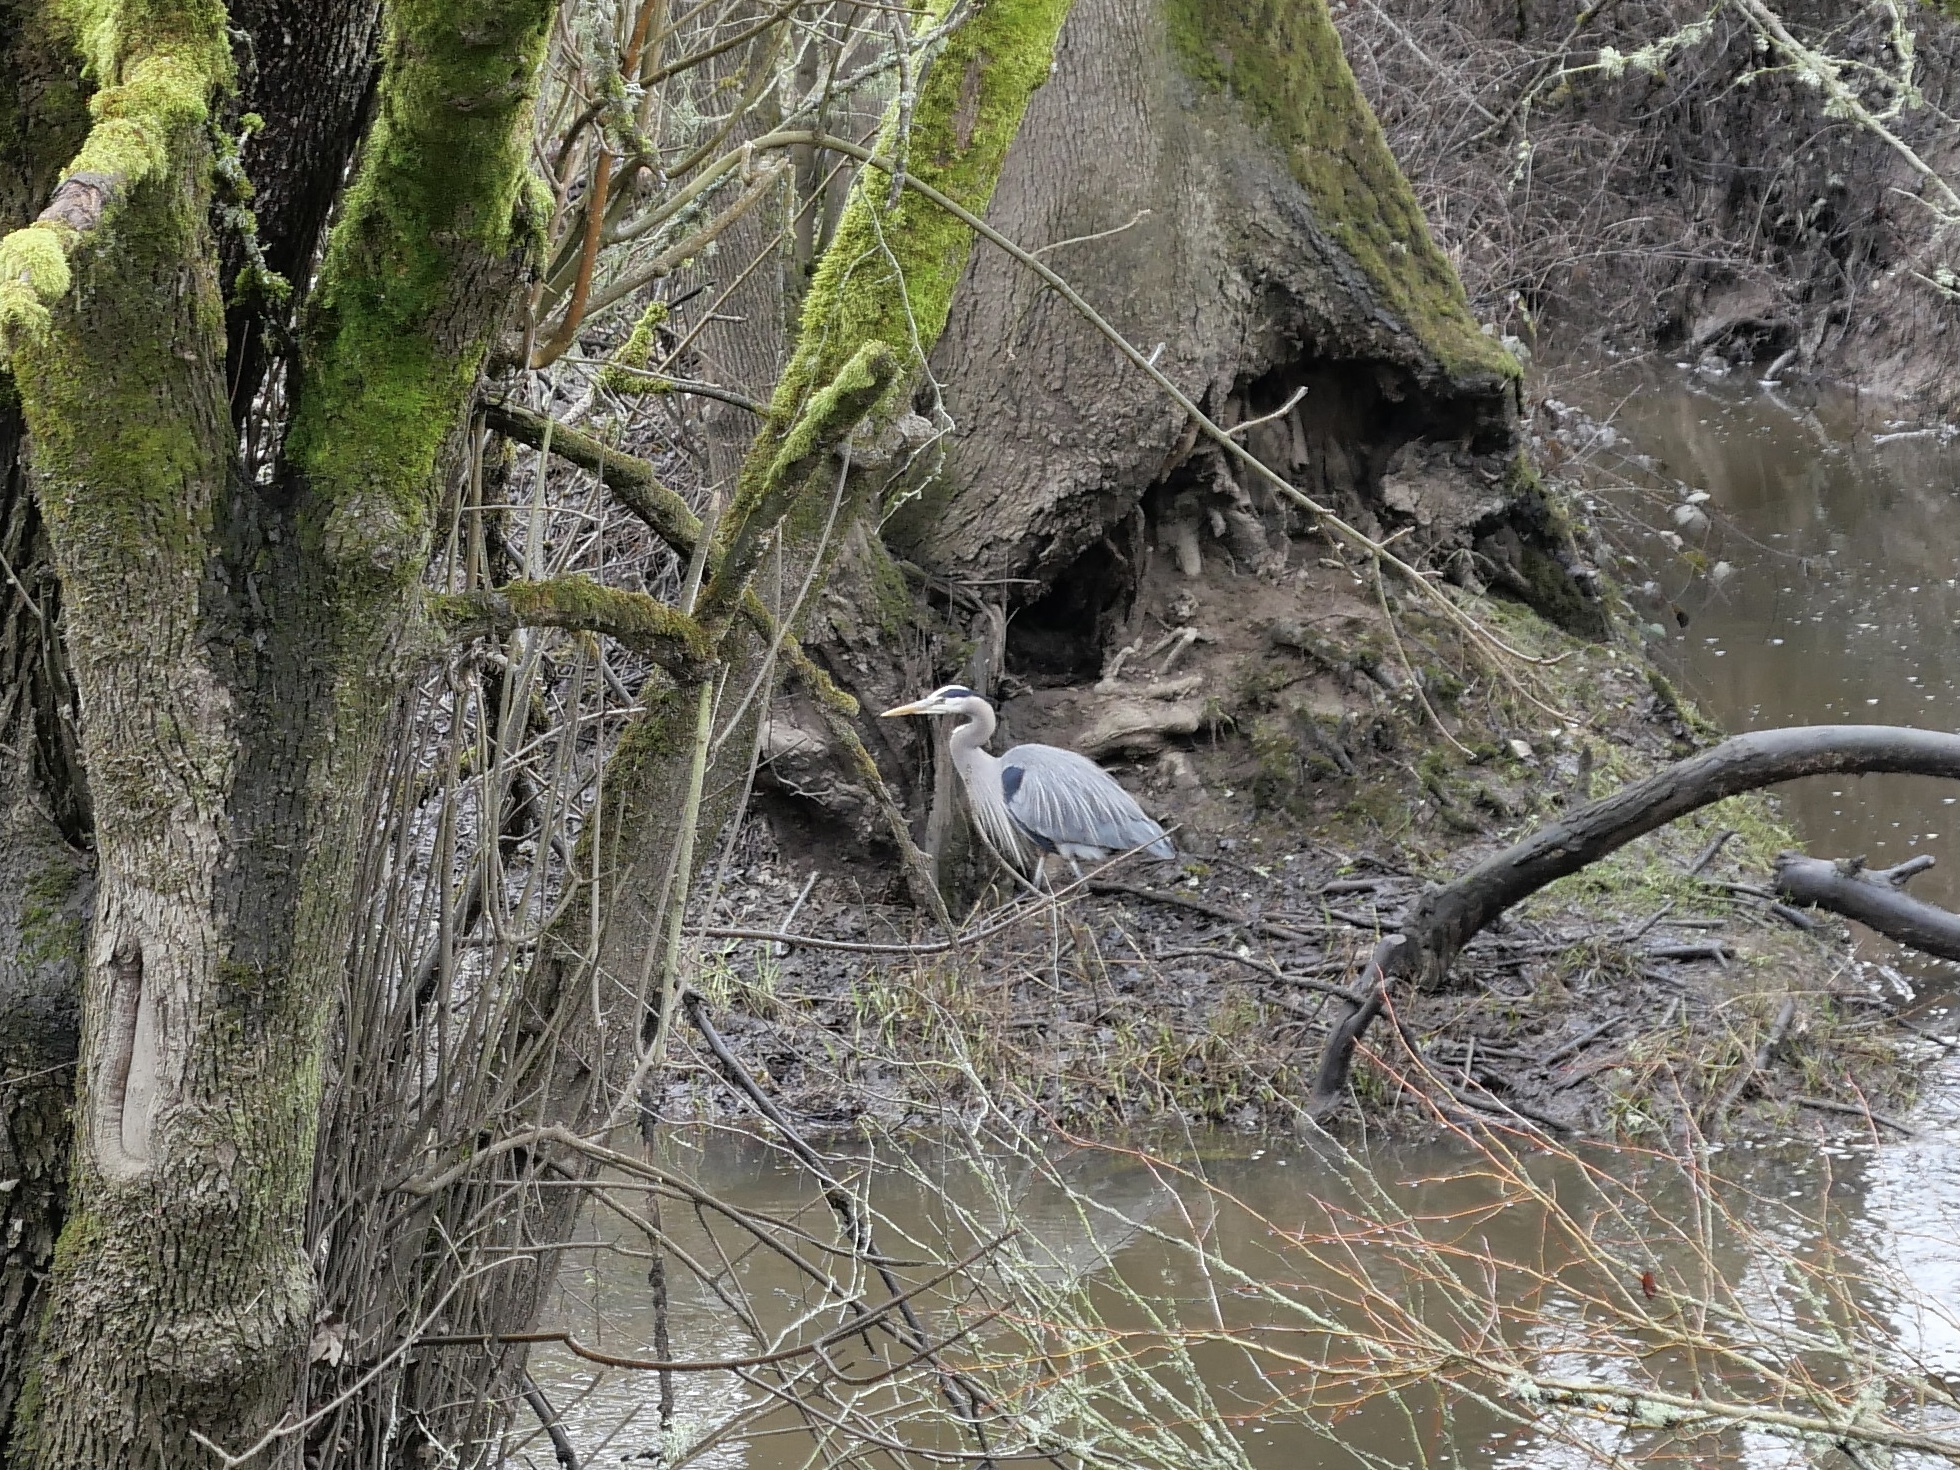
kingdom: Animalia
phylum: Chordata
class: Aves
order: Pelecaniformes
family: Ardeidae
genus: Ardea
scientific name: Ardea herodias
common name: Great blue heron
